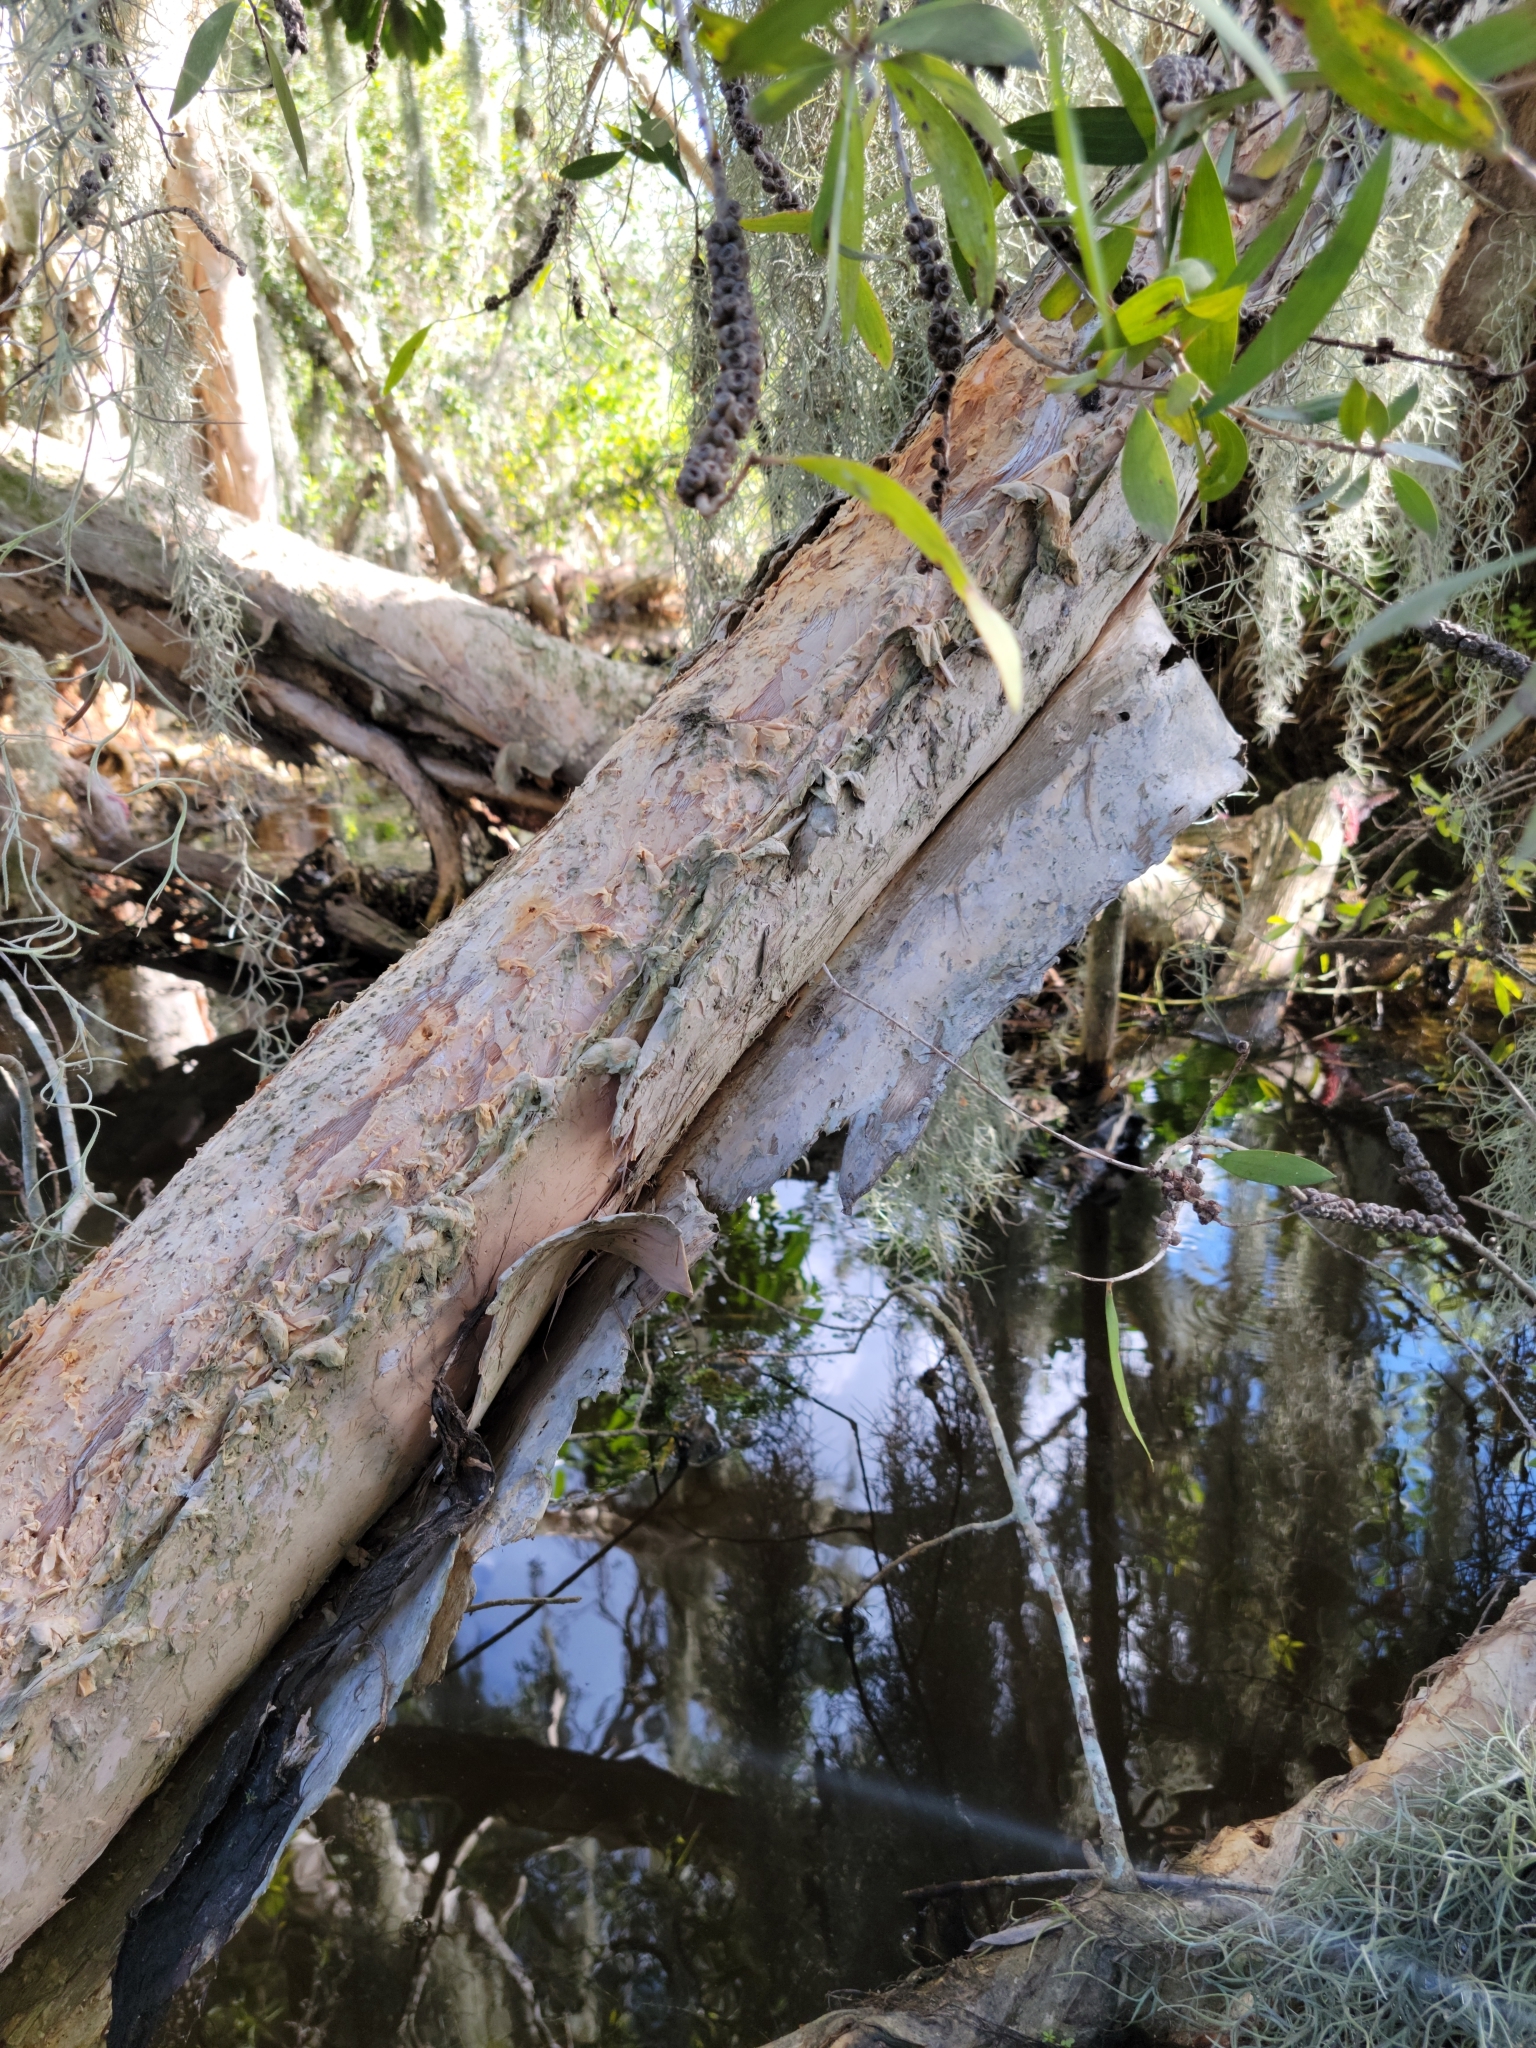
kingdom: Plantae
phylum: Tracheophyta
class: Magnoliopsida
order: Myrtales
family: Myrtaceae
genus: Melaleuca
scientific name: Melaleuca quinquenervia
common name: Punktree
